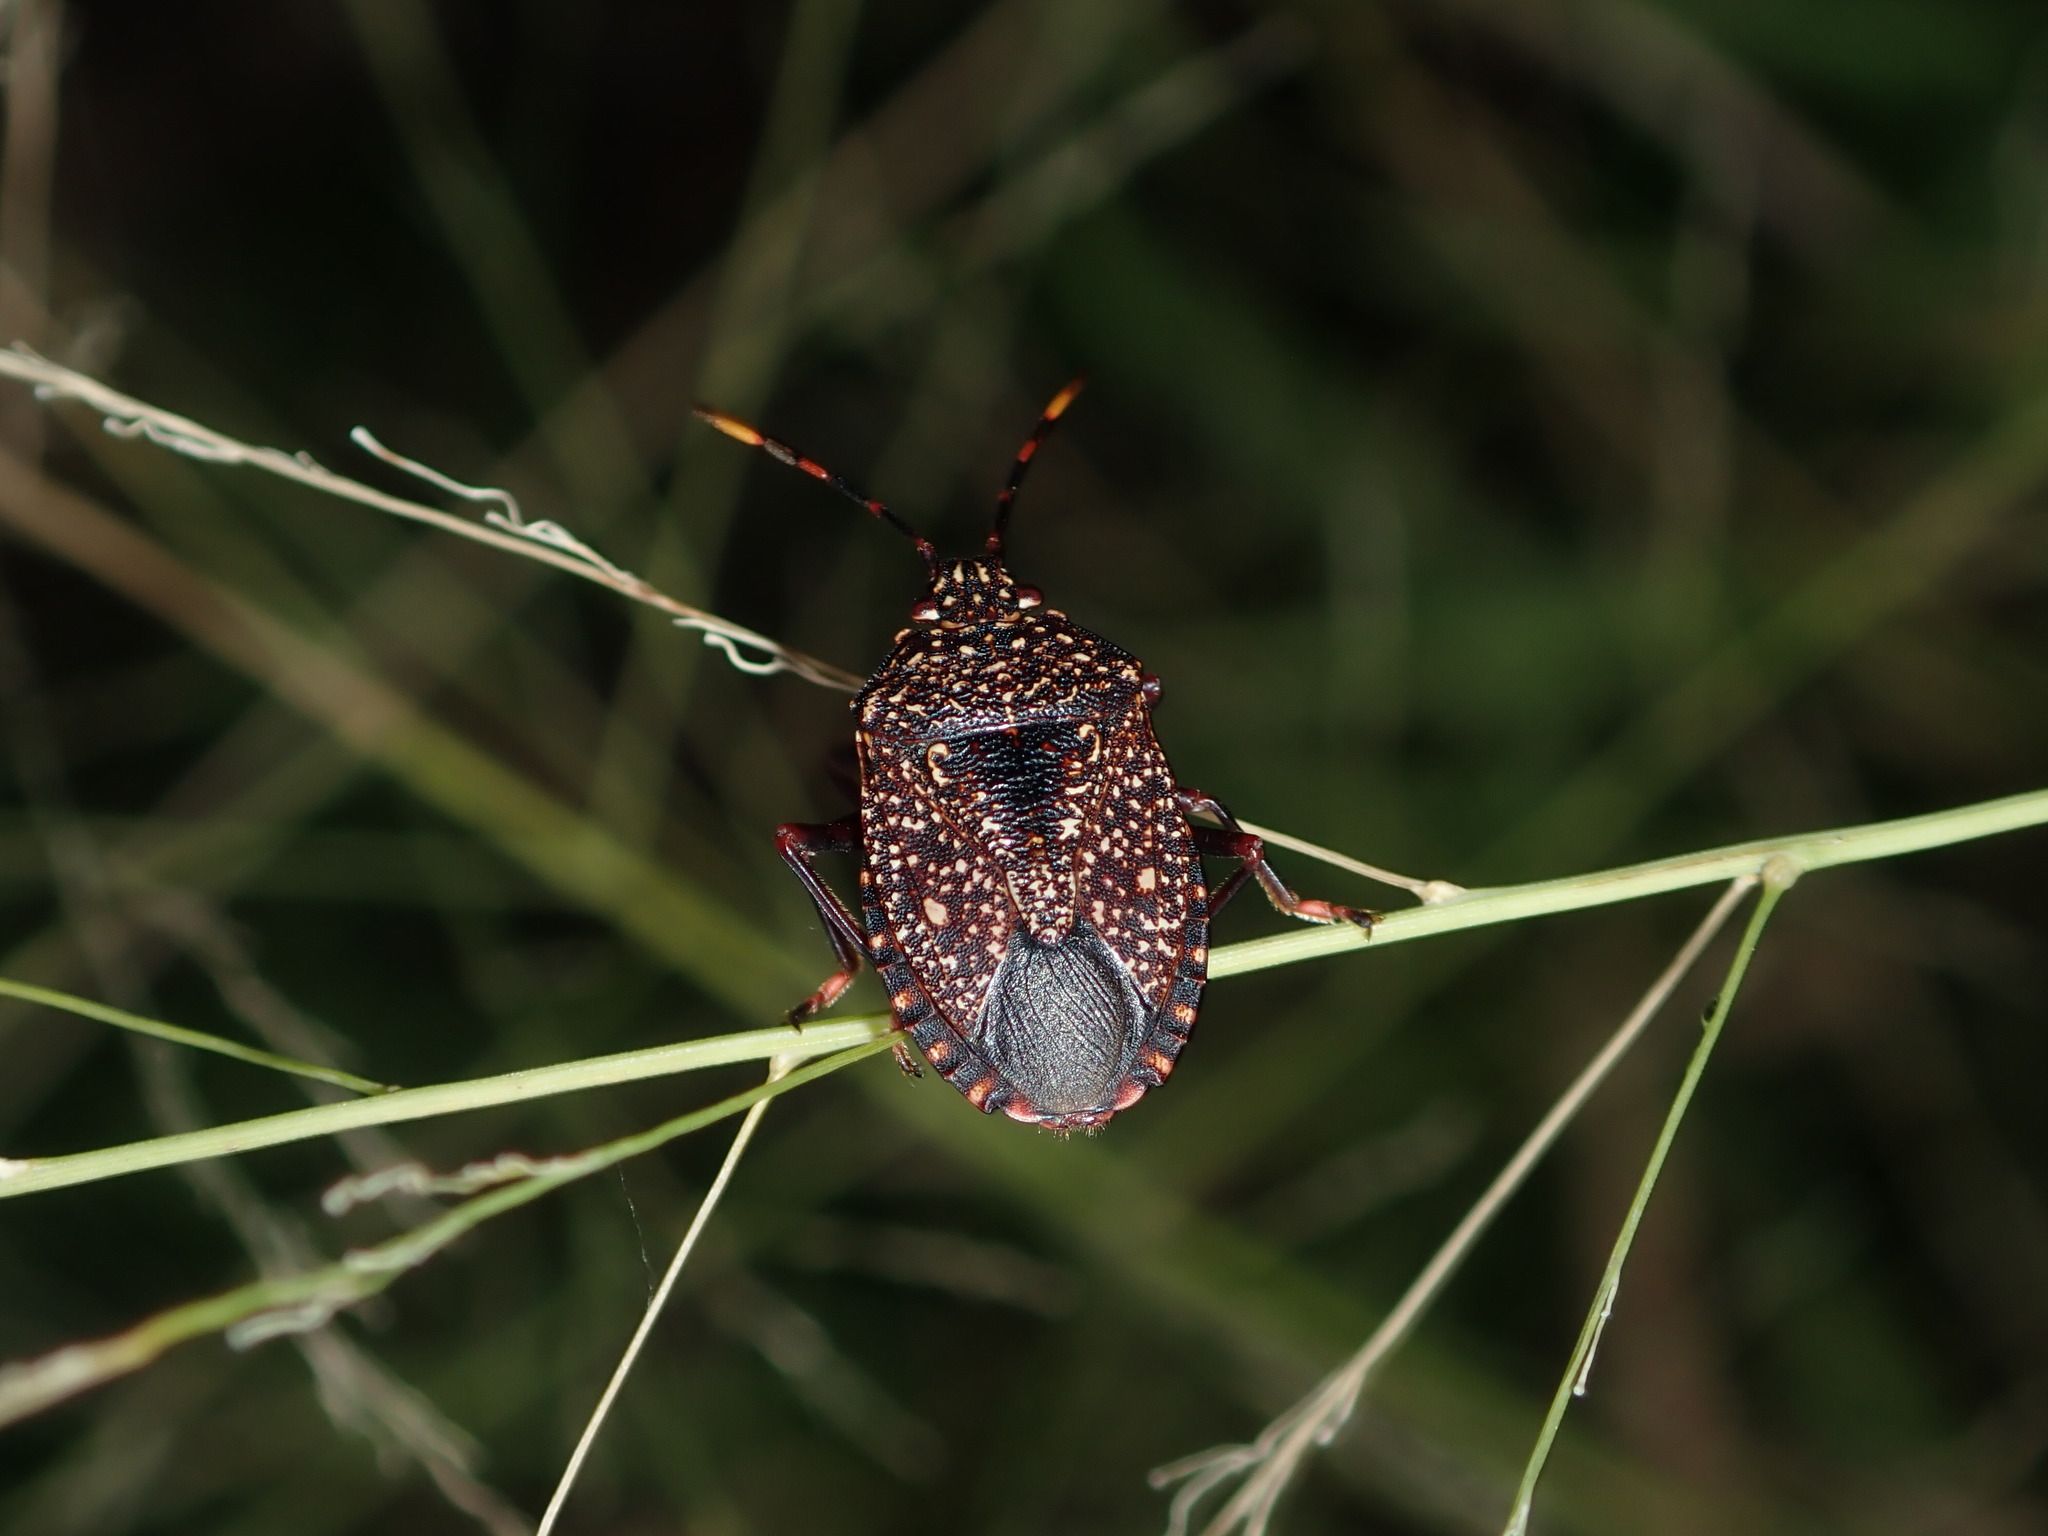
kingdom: Animalia
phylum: Arthropoda
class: Insecta
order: Hemiptera
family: Pentatomidae
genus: Notius
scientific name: Notius
